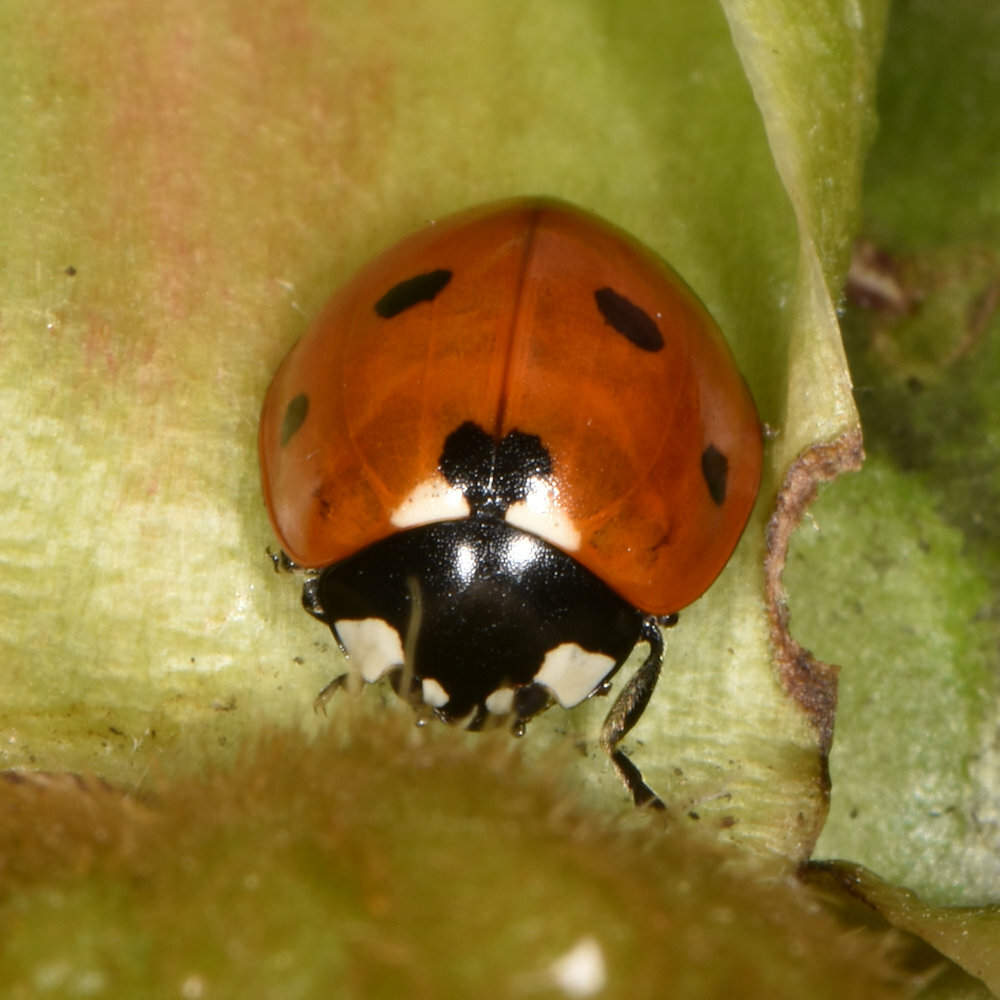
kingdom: Animalia
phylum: Arthropoda
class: Insecta
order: Coleoptera
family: Coccinellidae
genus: Coccinella
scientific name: Coccinella septempunctata
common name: Sevenspotted lady beetle
